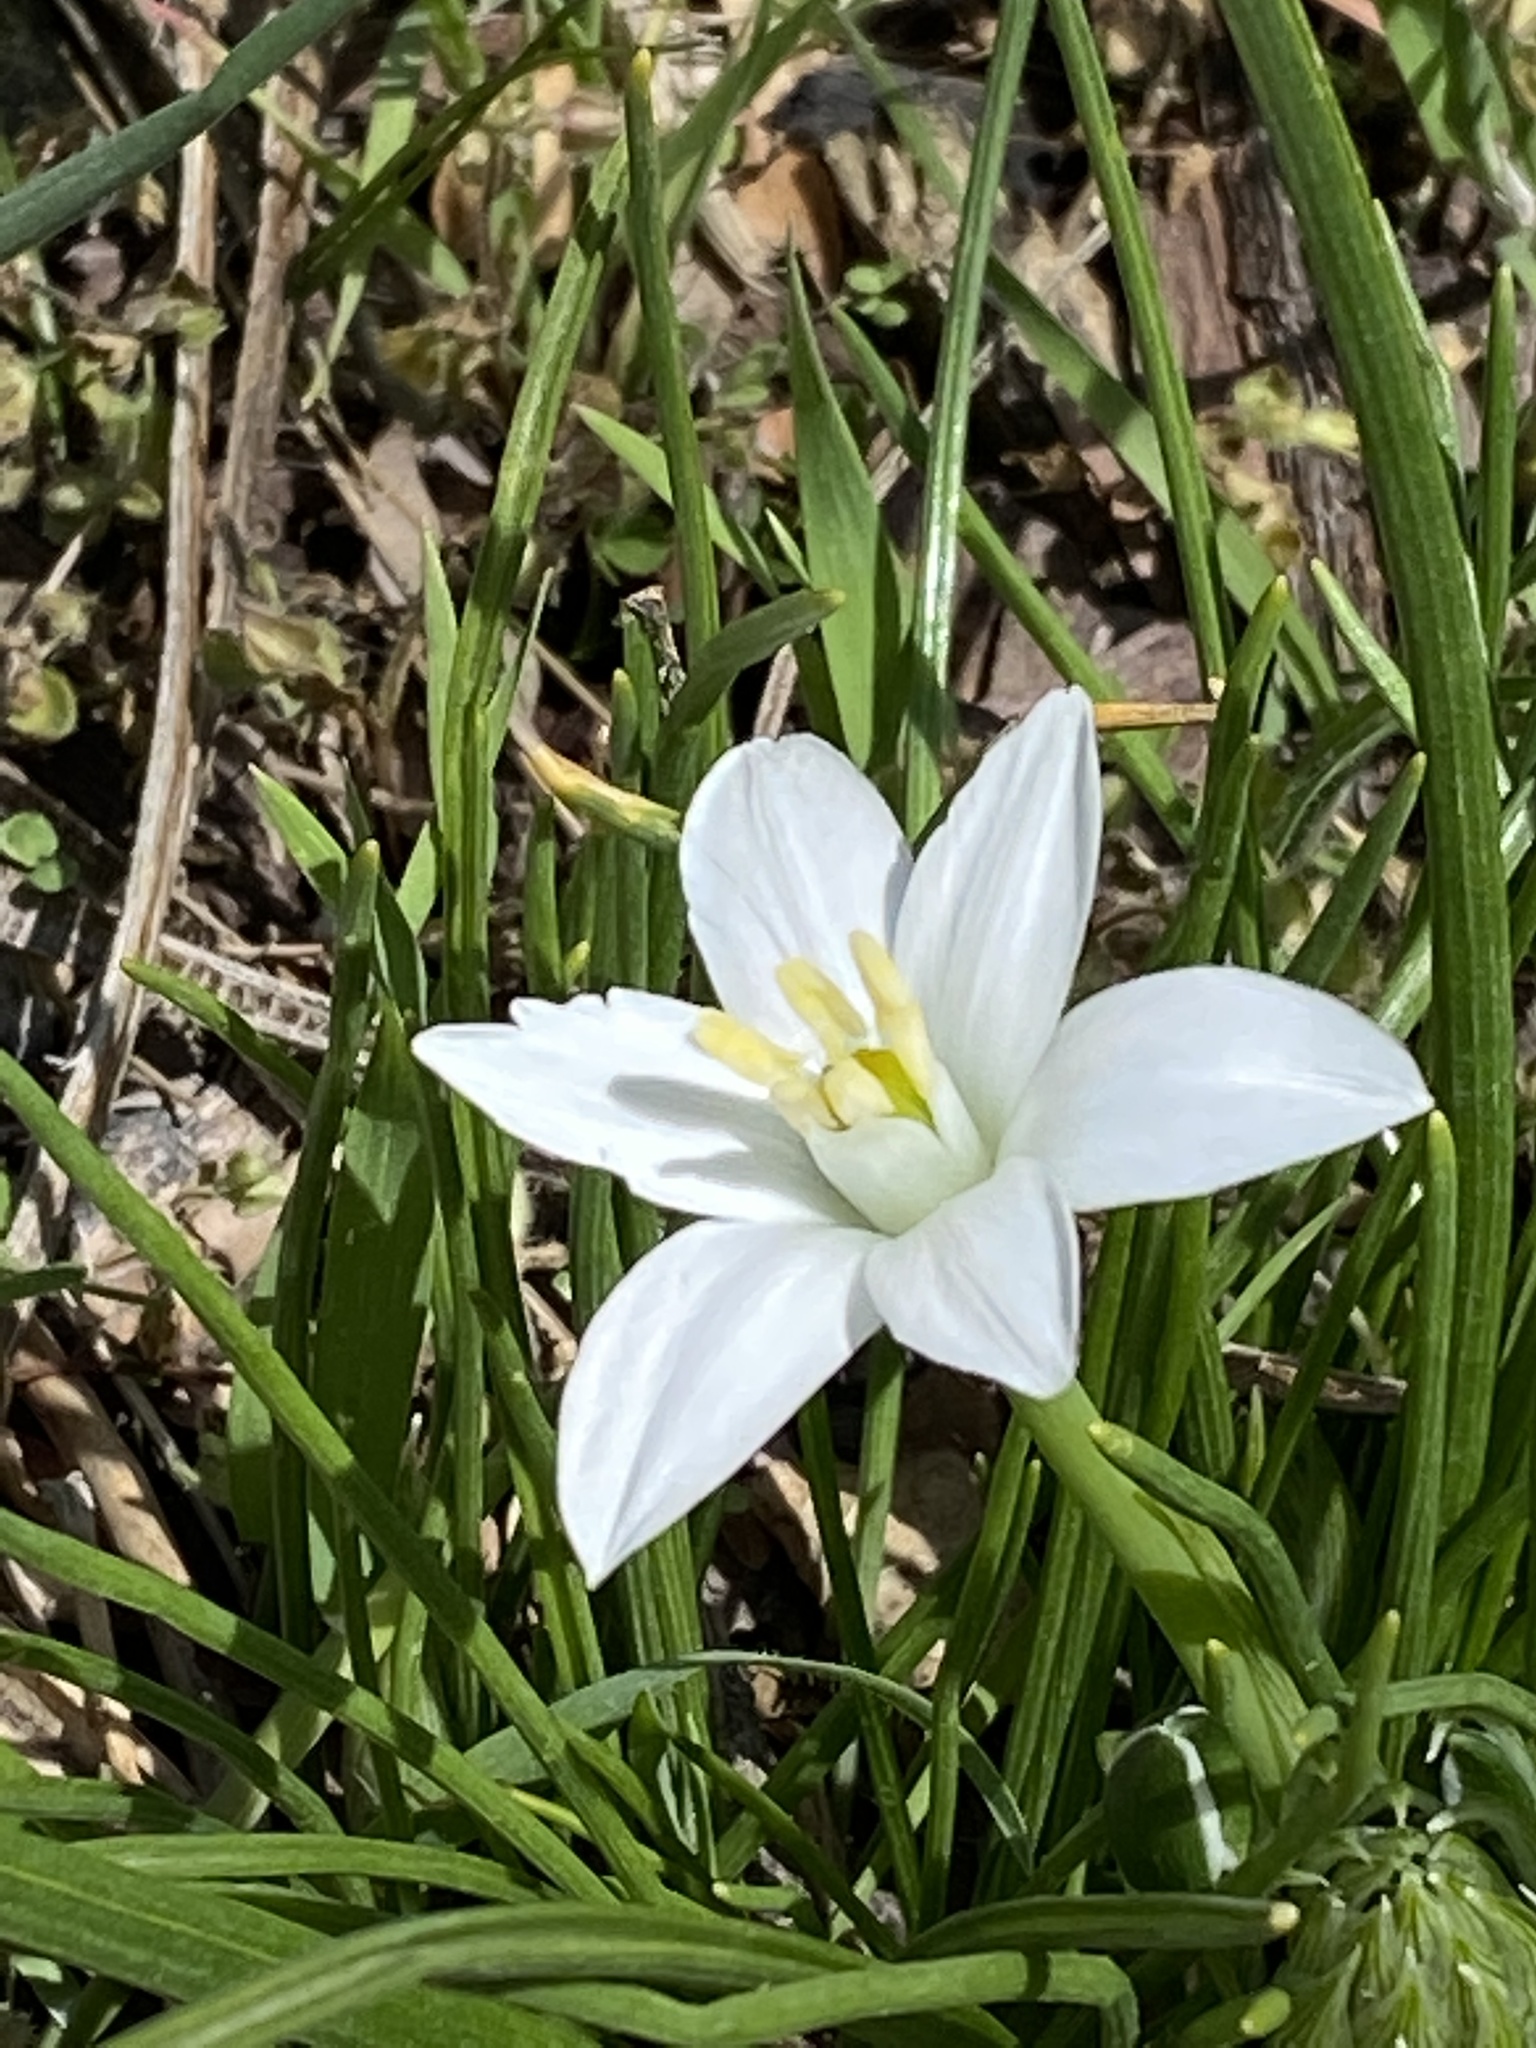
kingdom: Plantae
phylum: Tracheophyta
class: Liliopsida
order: Asparagales
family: Asparagaceae
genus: Ornithogalum
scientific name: Ornithogalum umbellatum
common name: Garden star-of-bethlehem
